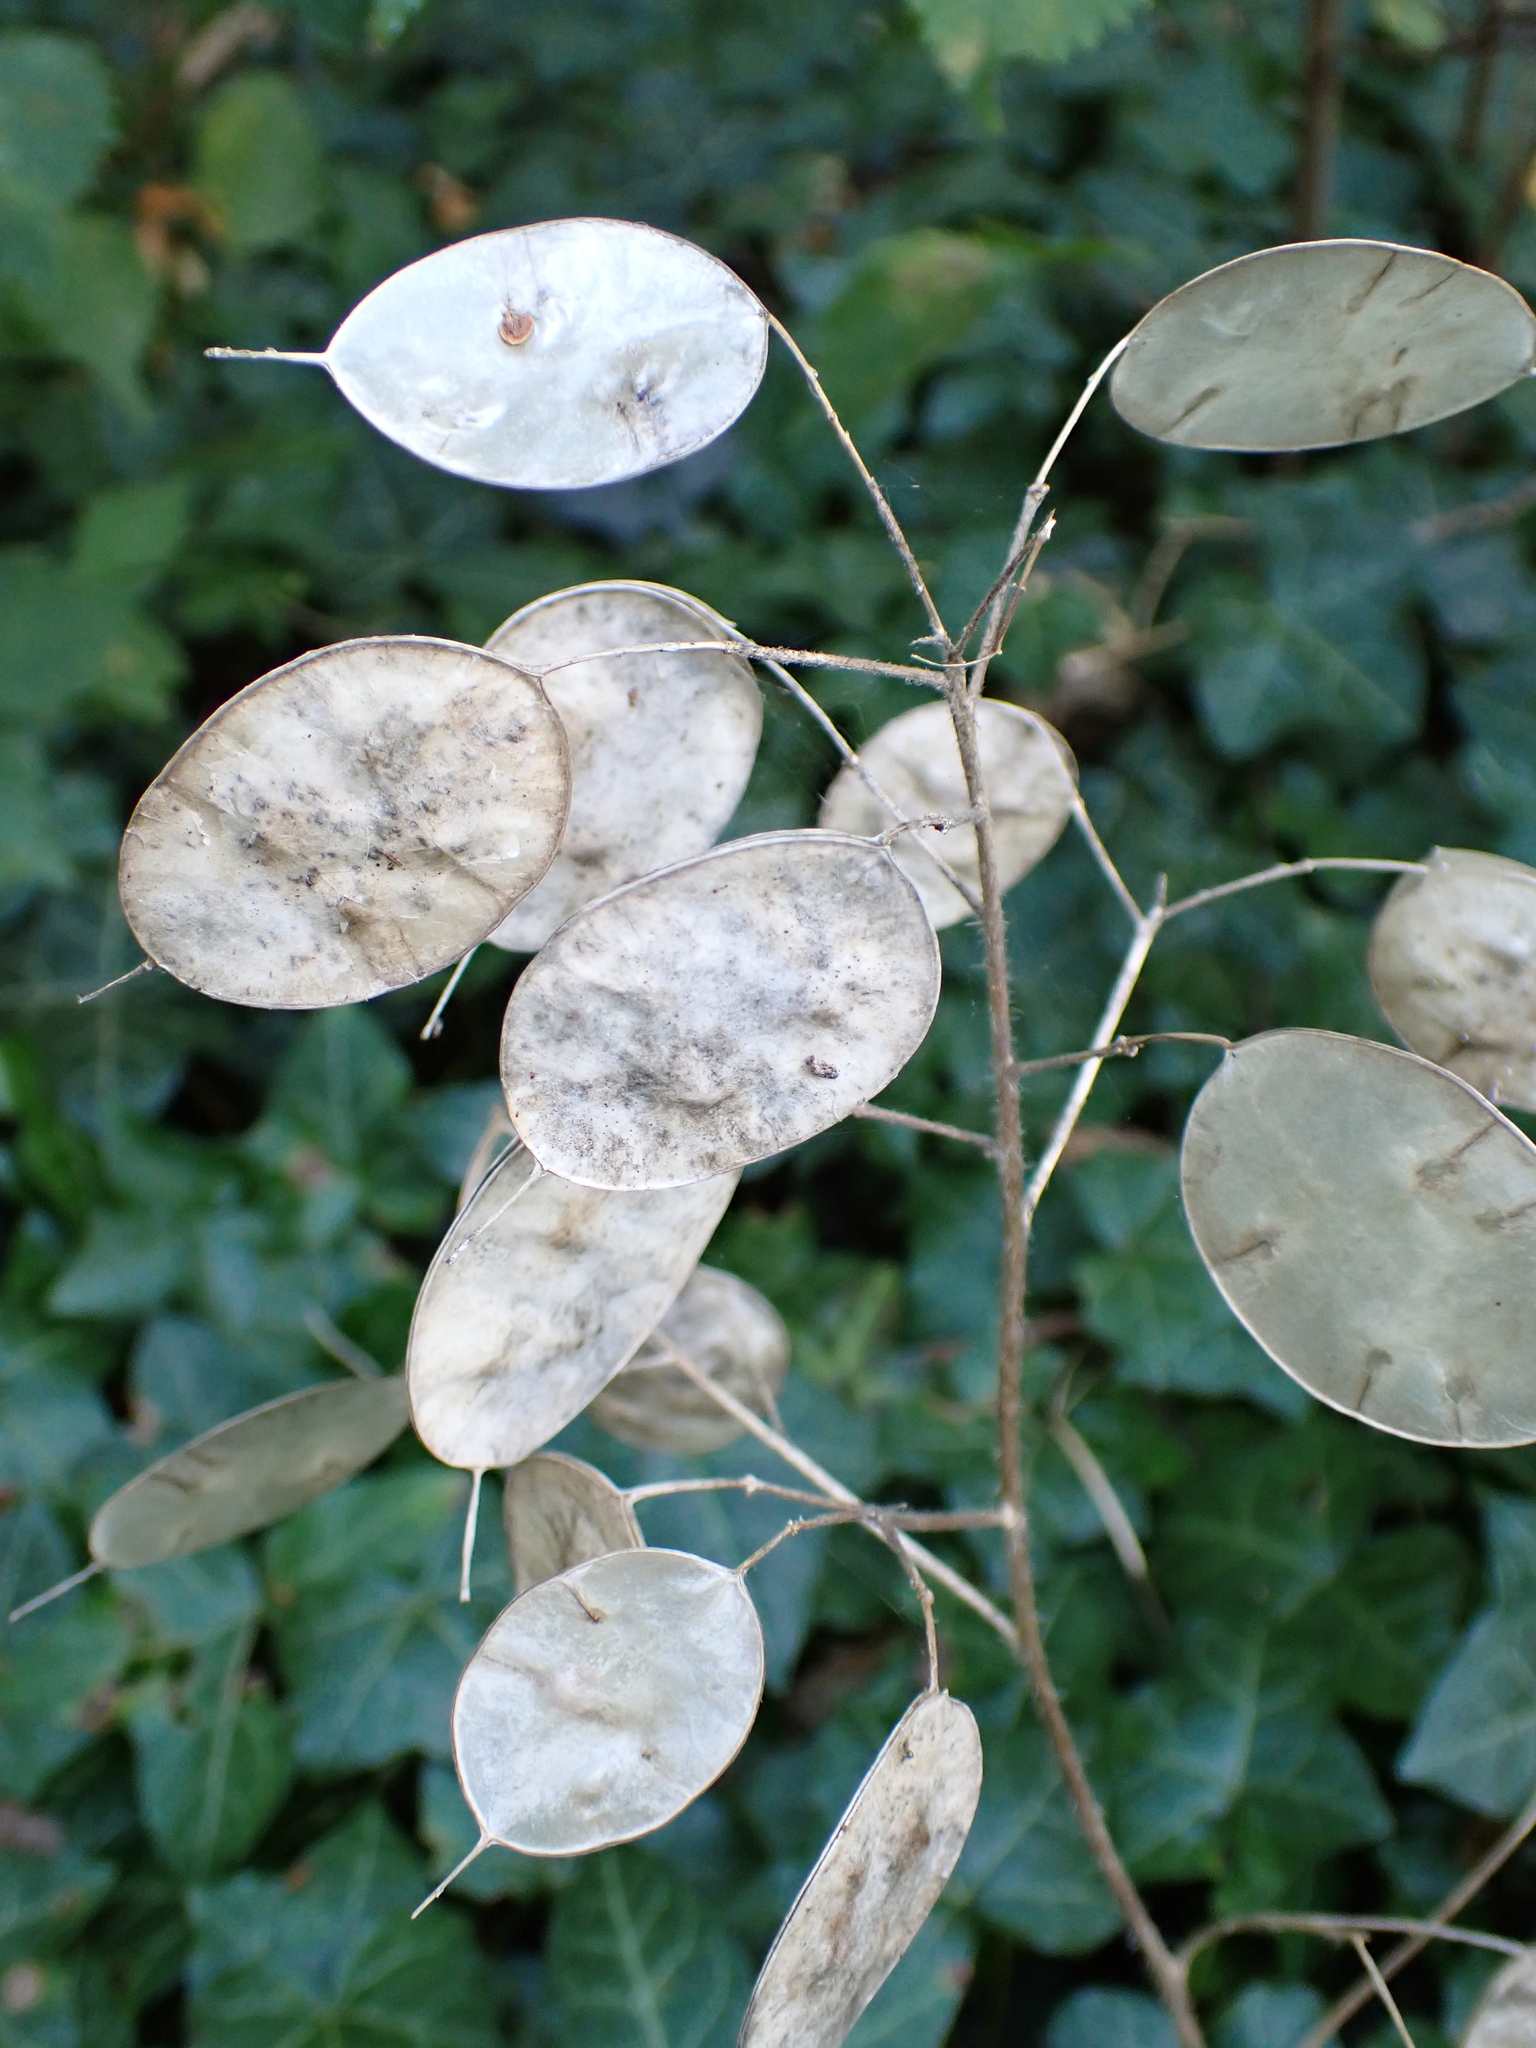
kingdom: Plantae
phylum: Tracheophyta
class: Magnoliopsida
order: Brassicales
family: Brassicaceae
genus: Lunaria
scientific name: Lunaria annua
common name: Honesty
